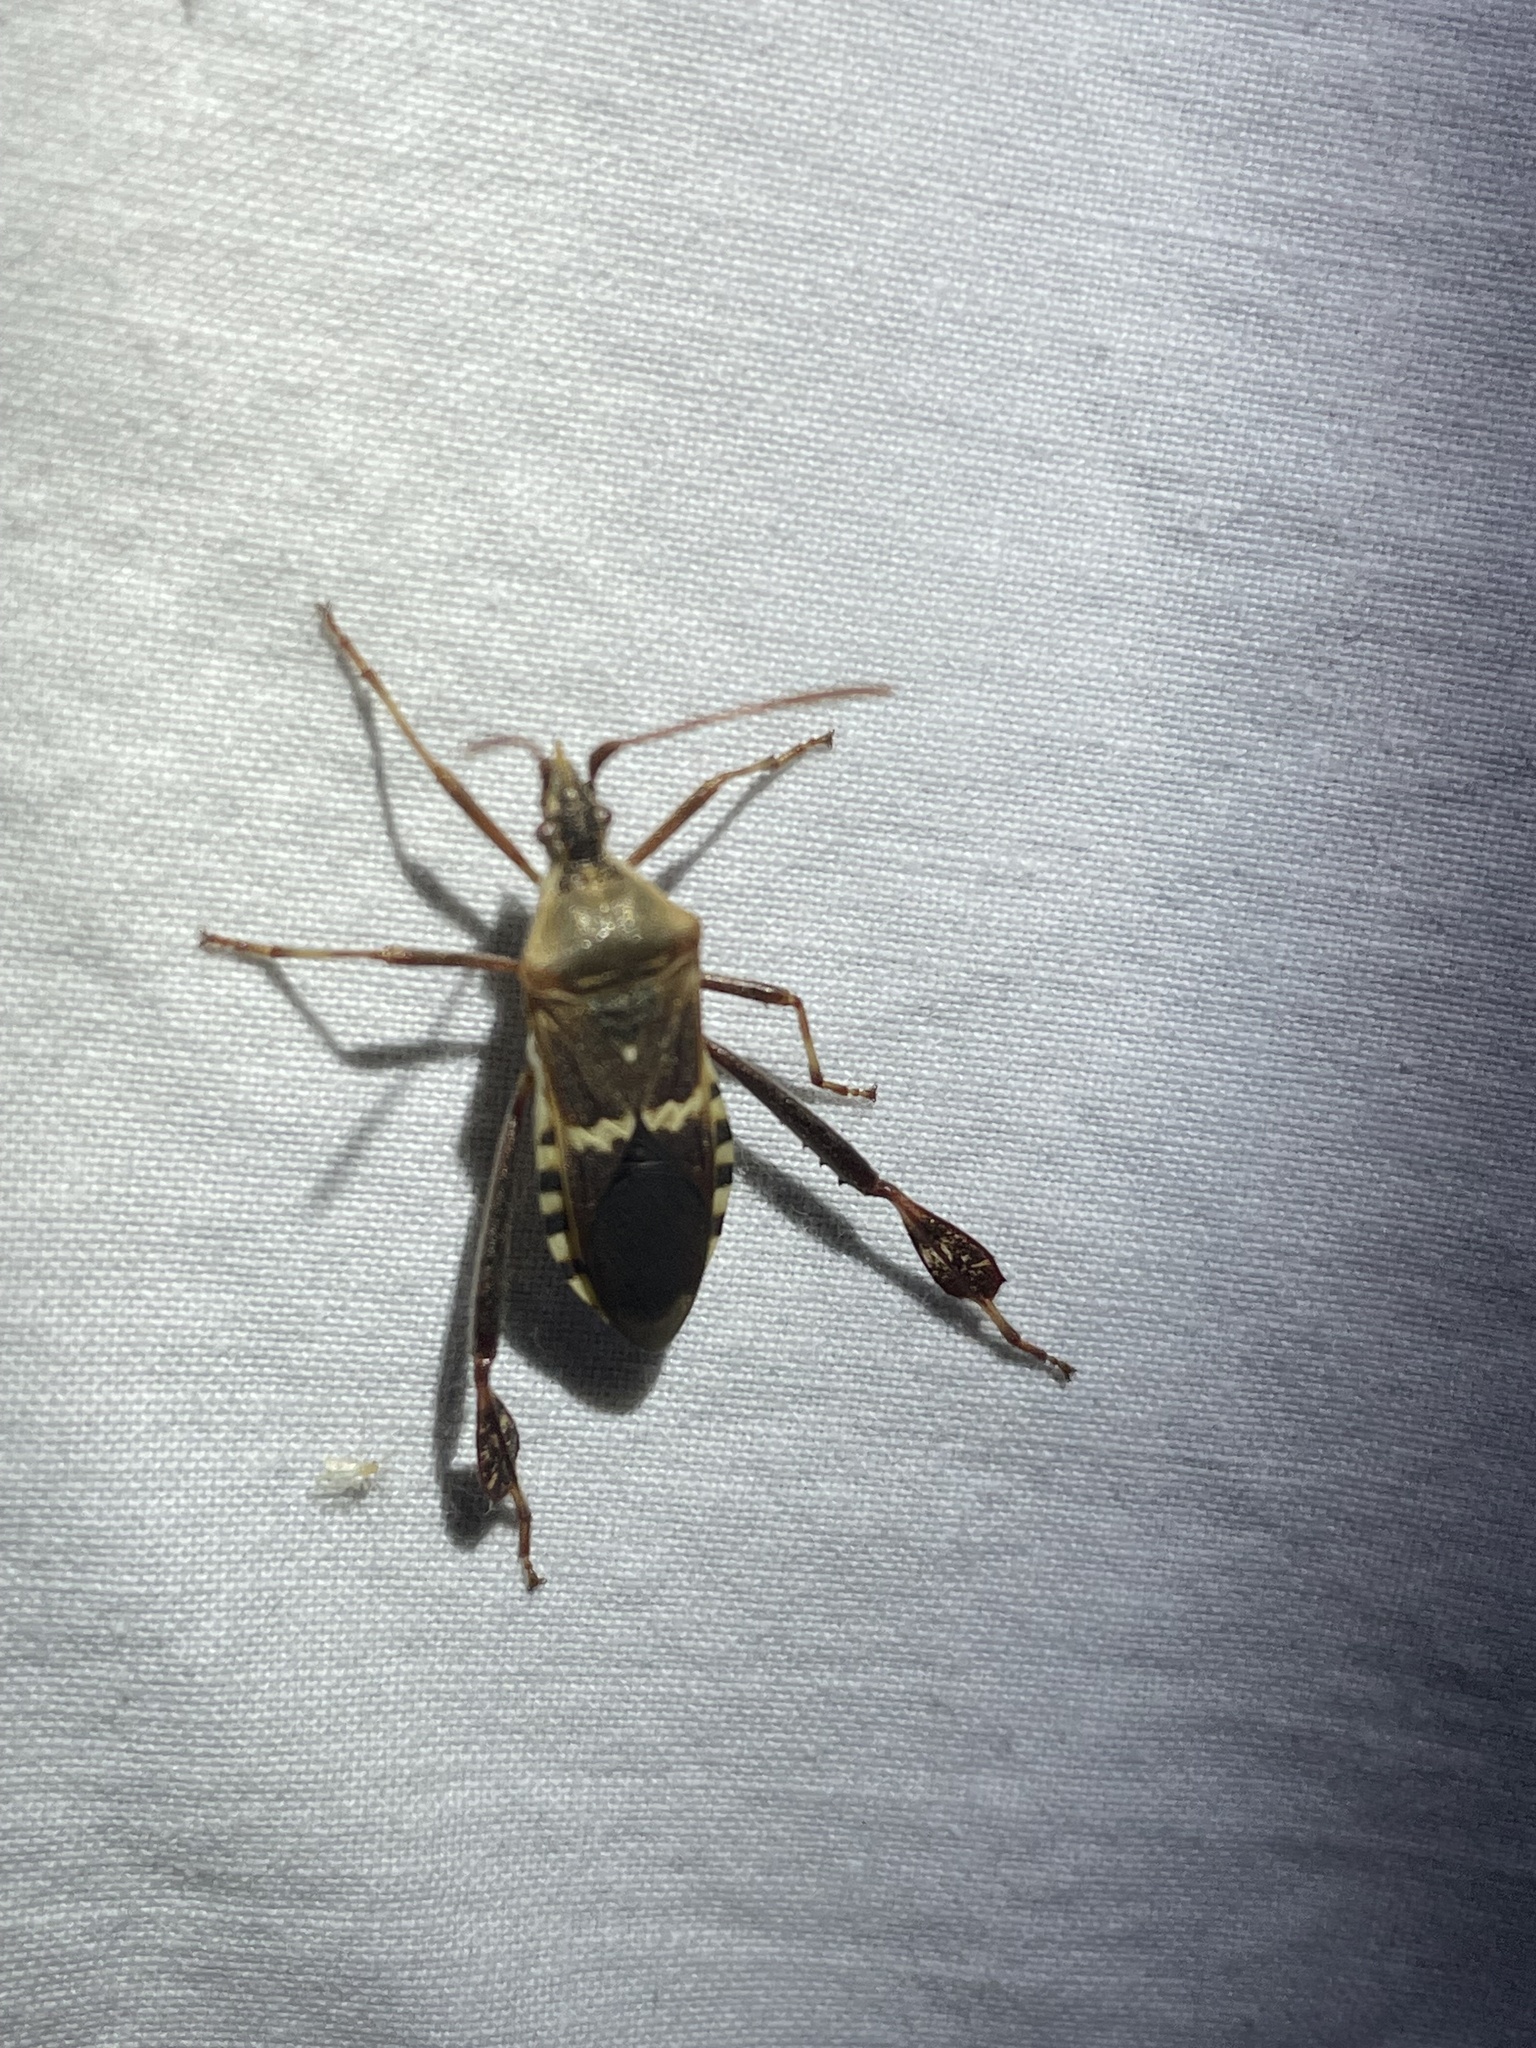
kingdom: Animalia
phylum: Arthropoda
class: Insecta
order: Hemiptera
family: Coreidae
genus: Leptoglossus
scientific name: Leptoglossus clypealis
